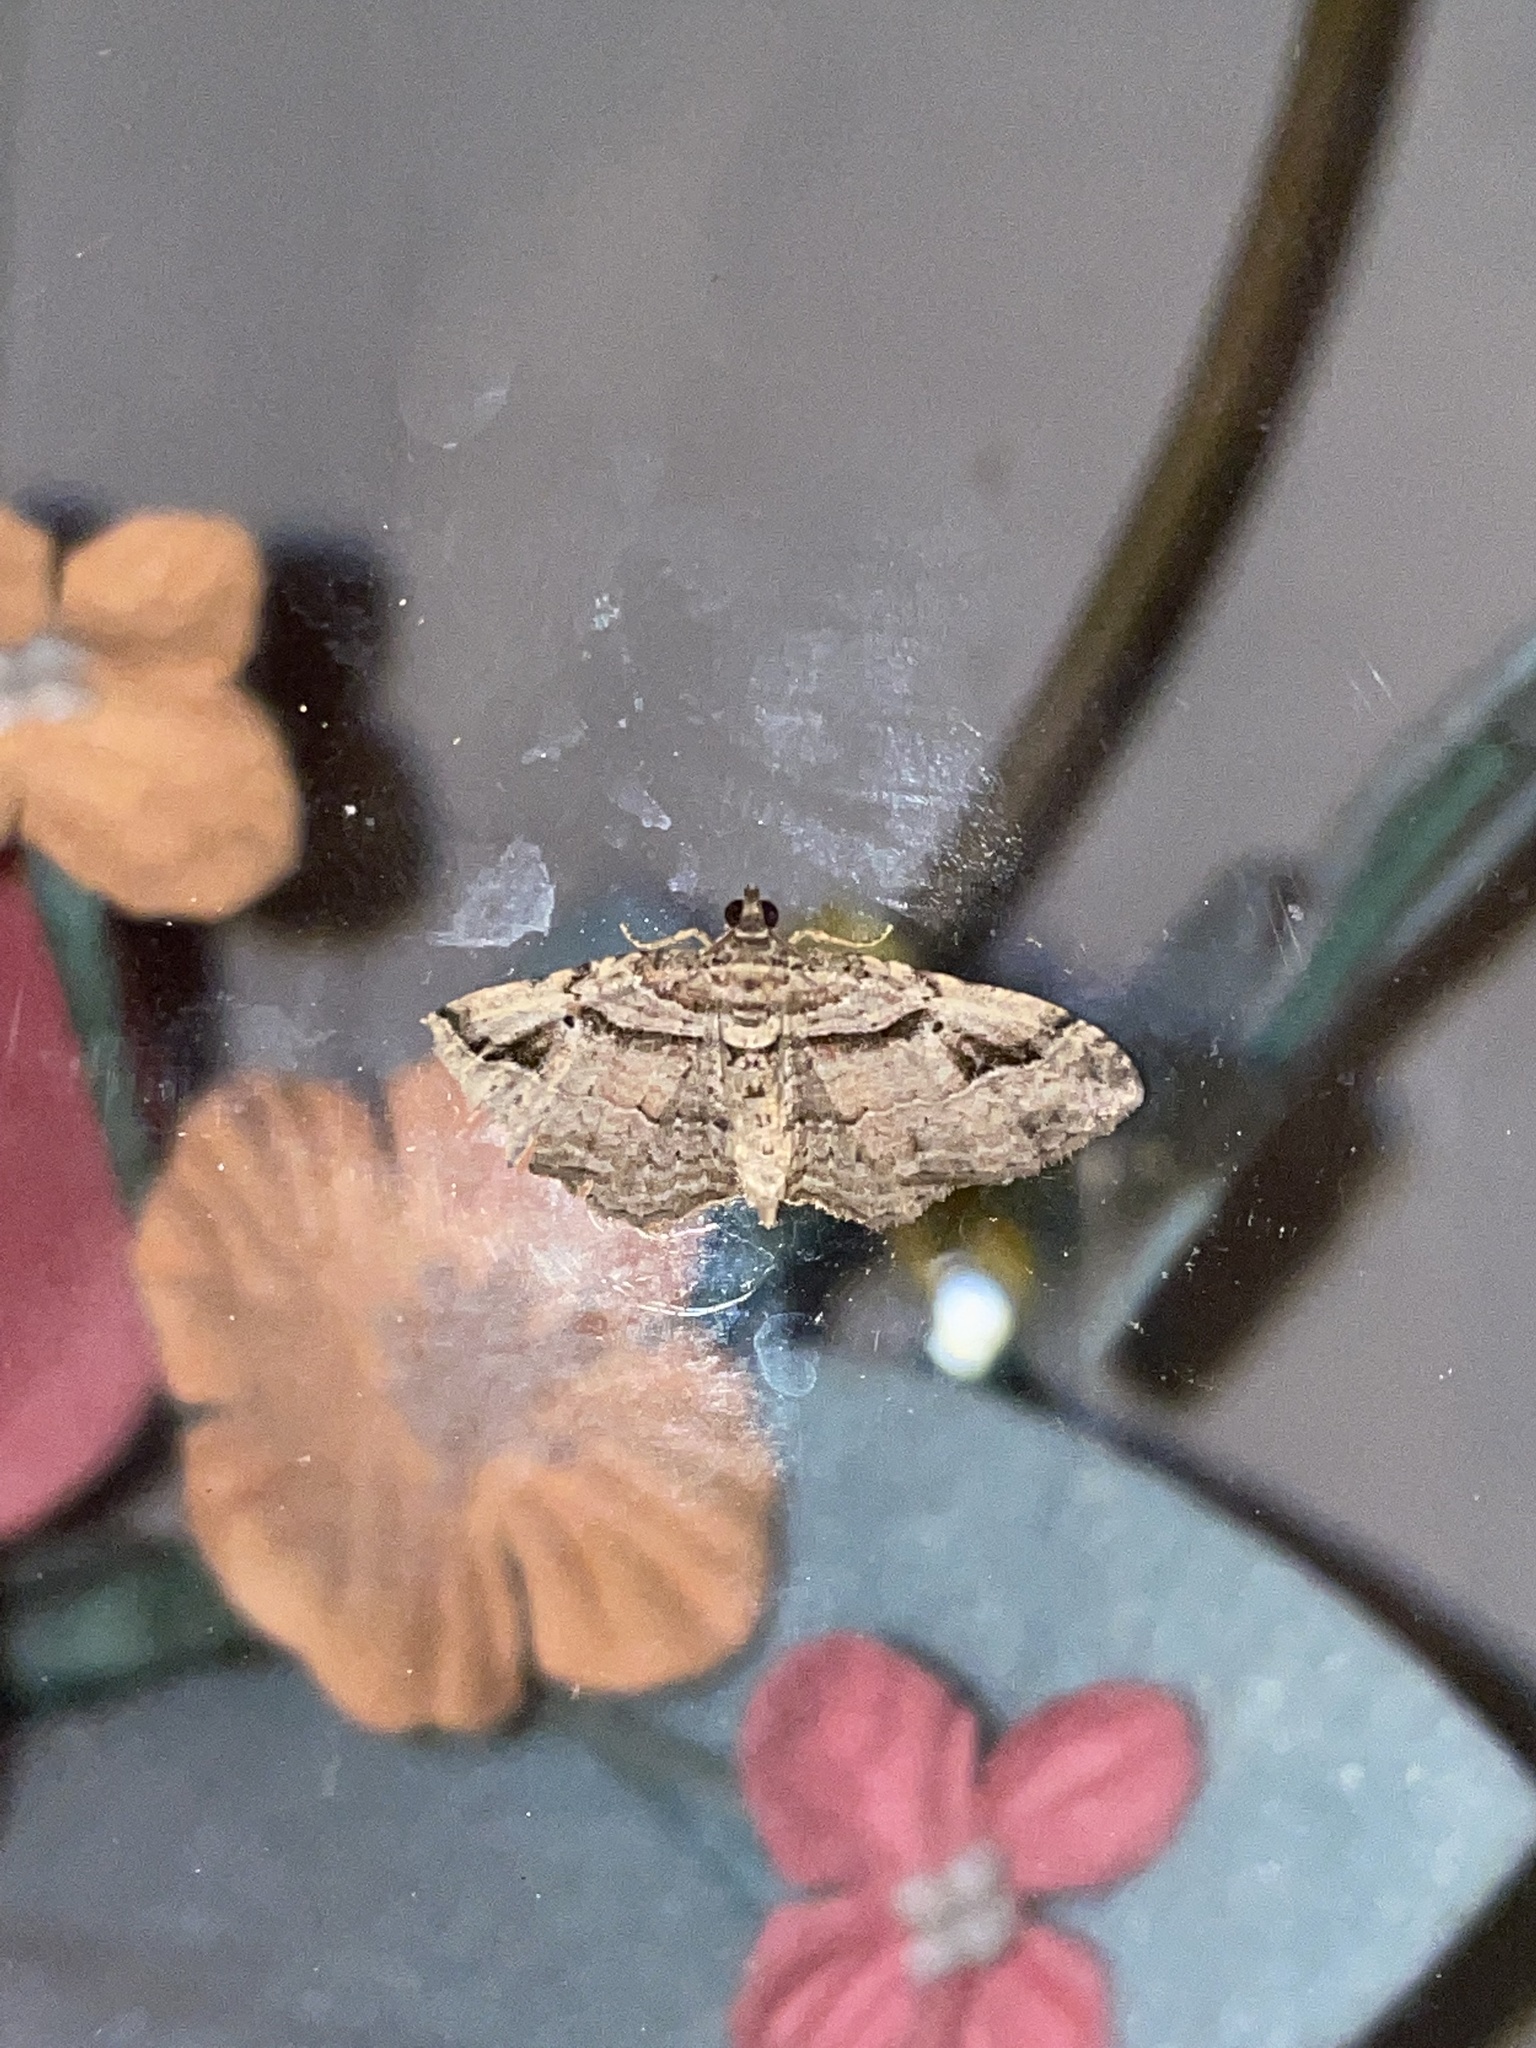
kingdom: Animalia
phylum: Arthropoda
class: Insecta
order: Lepidoptera
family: Geometridae
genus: Costaconvexa
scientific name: Costaconvexa centrostrigaria
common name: Bent-line carpet
